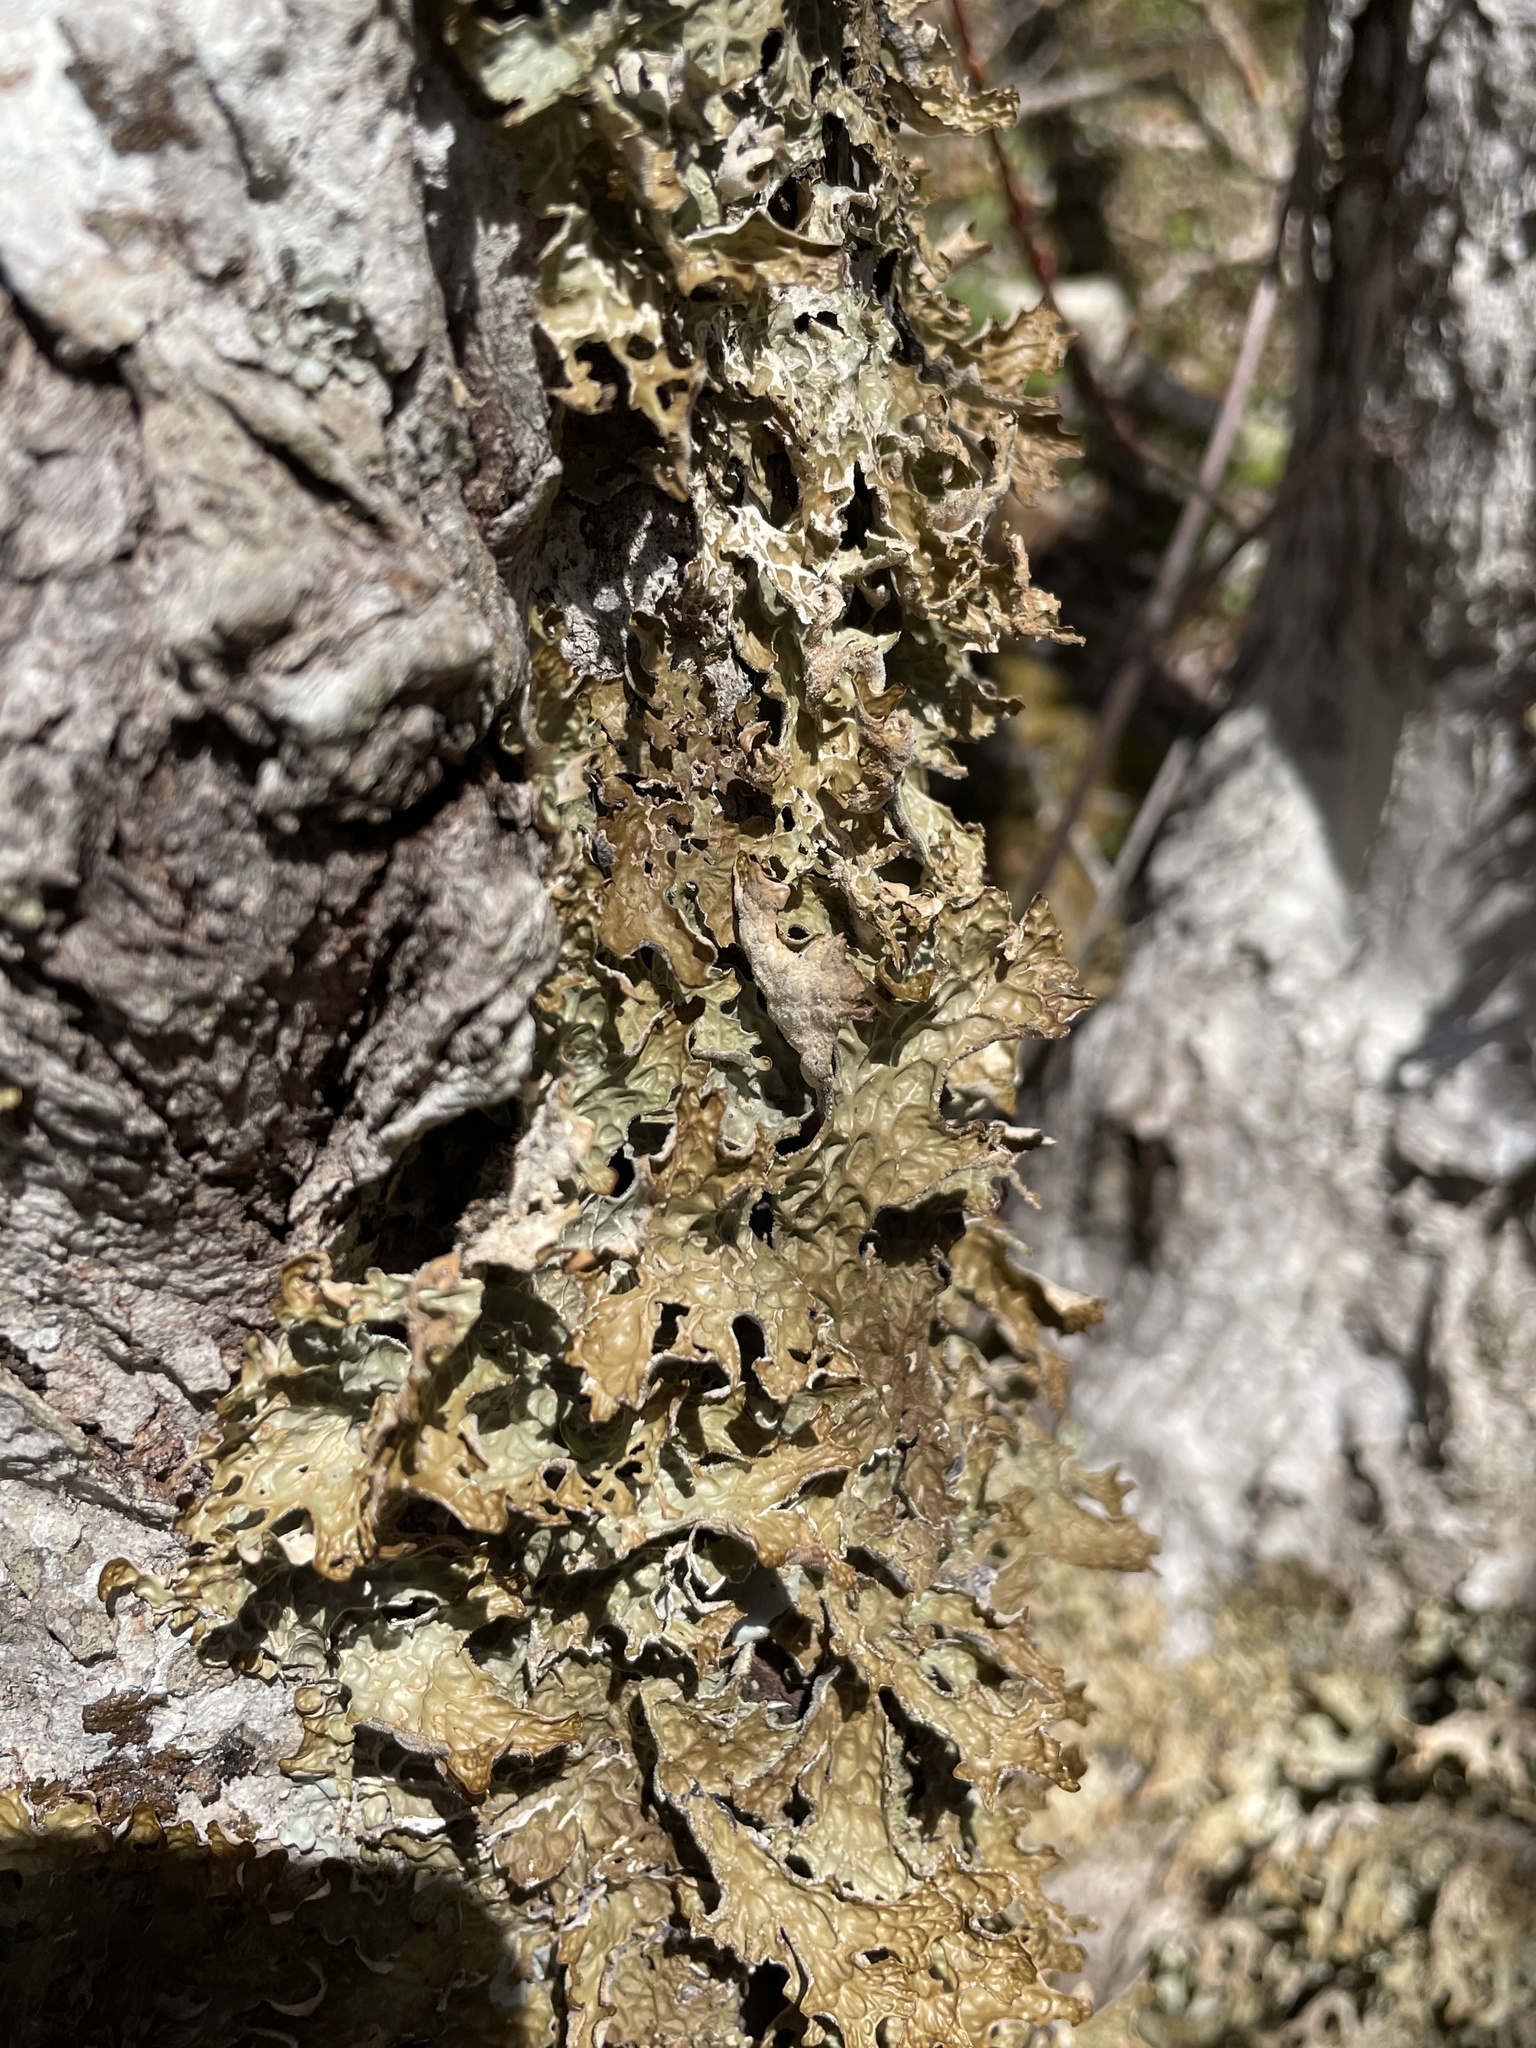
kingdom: Fungi
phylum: Ascomycota
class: Lecanoromycetes
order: Peltigerales
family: Lobariaceae
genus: Lobaria
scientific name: Lobaria pulmonaria
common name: Lungwort
